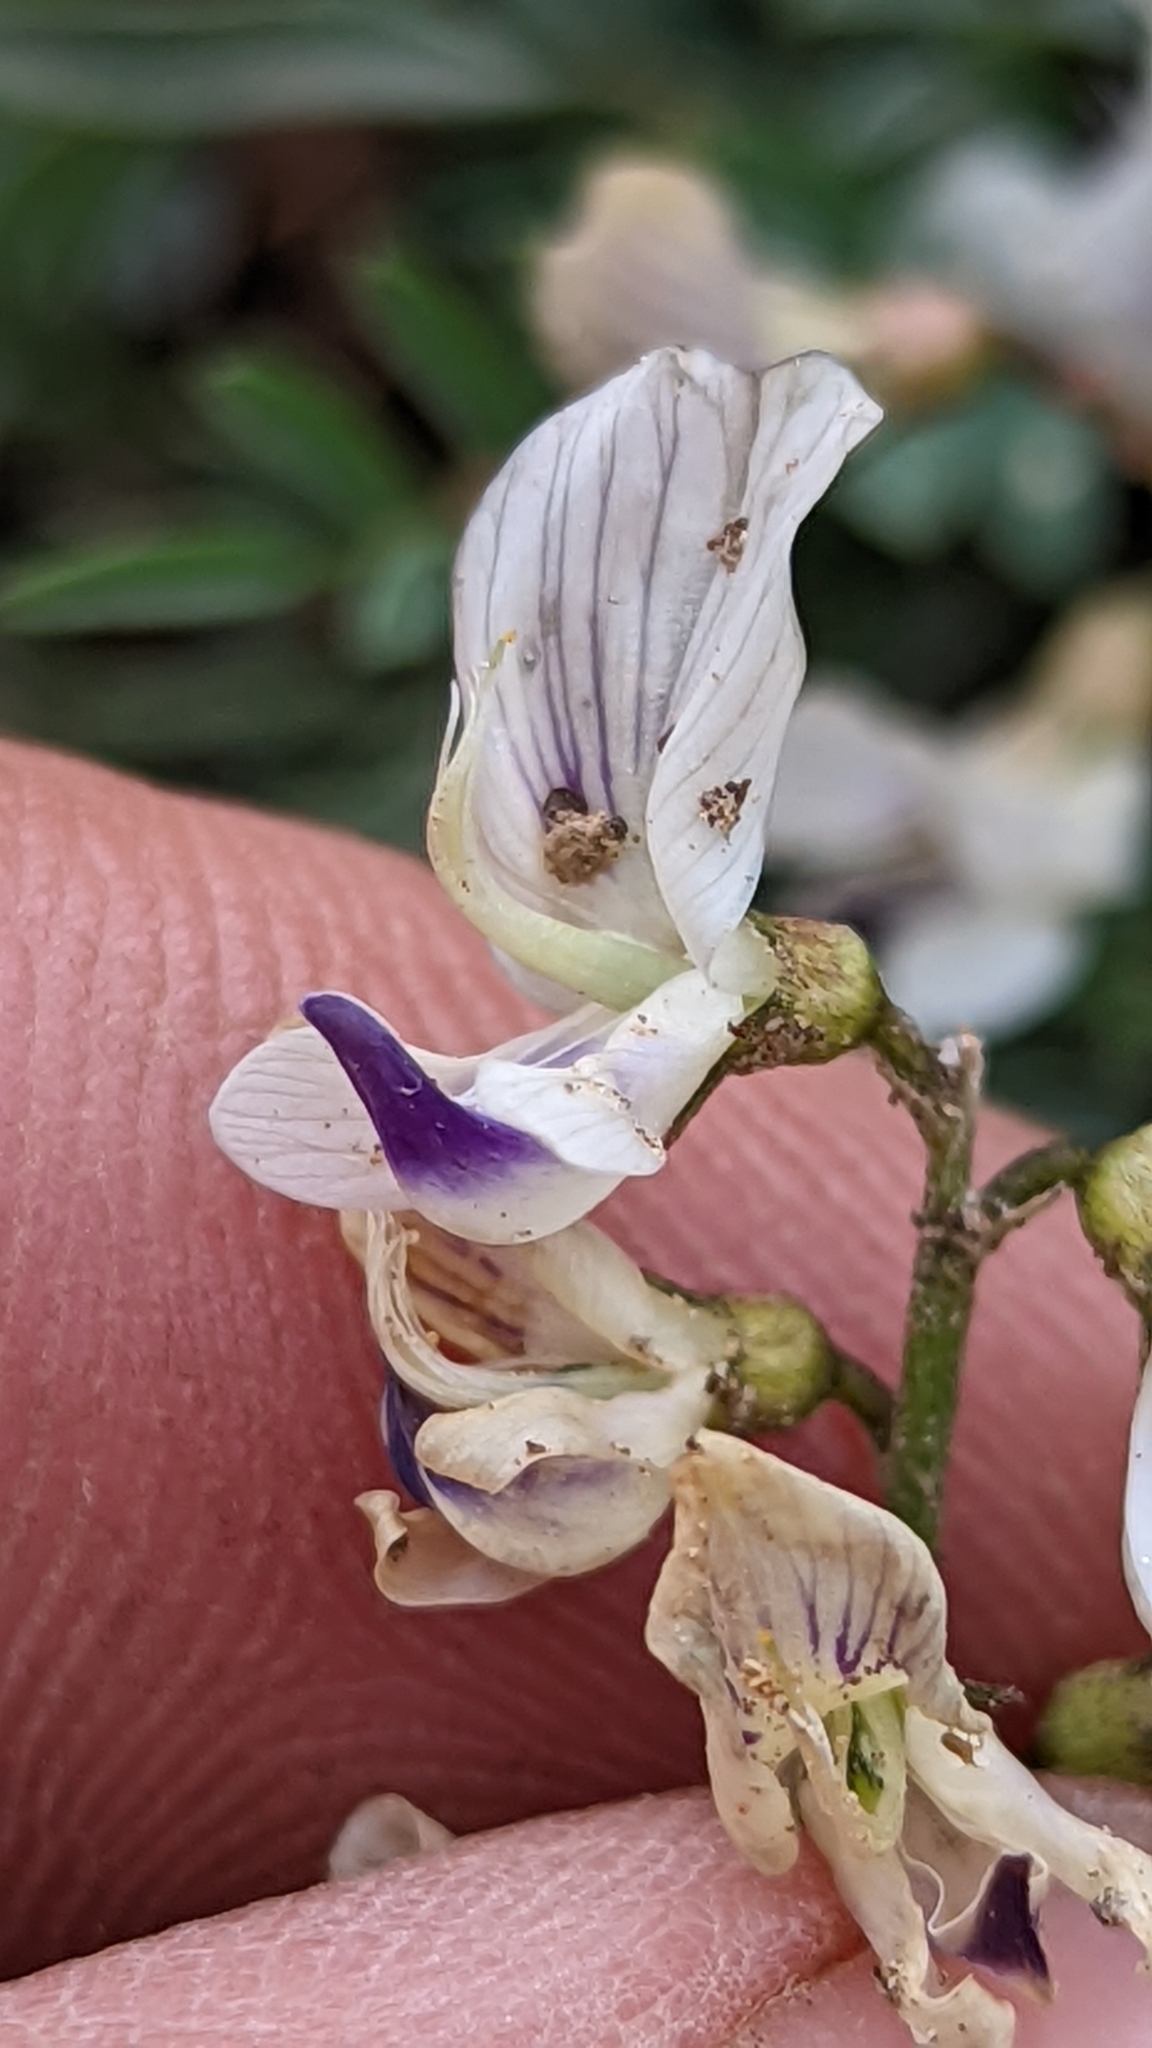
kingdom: Plantae
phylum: Tracheophyta
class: Magnoliopsida
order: Fabales
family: Fabaceae
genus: Astragalus
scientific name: Astragalus miser
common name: Timber milkvetch
